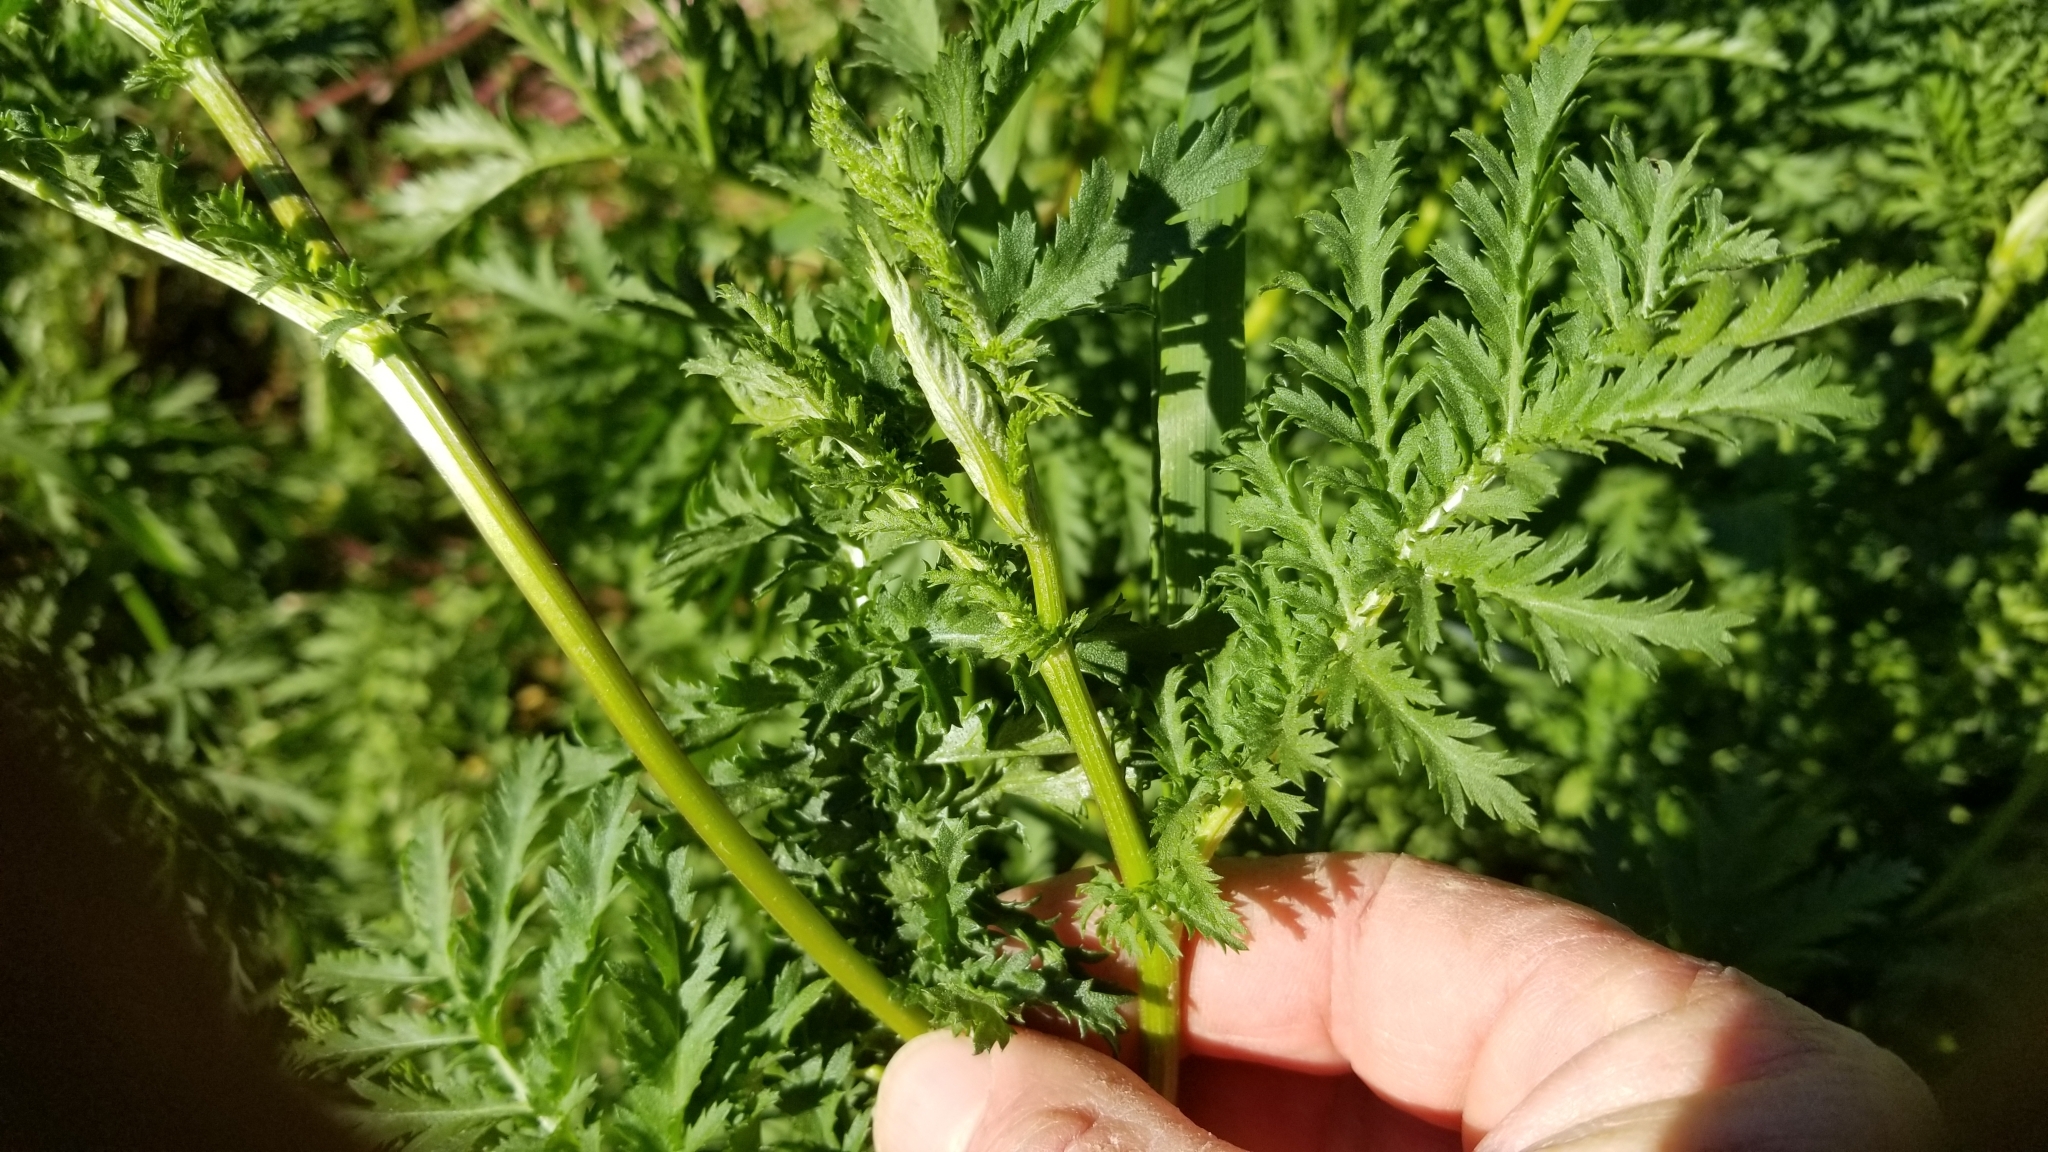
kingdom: Plantae
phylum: Tracheophyta
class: Magnoliopsida
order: Asterales
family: Asteraceae
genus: Tanacetum
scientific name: Tanacetum vulgare
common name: Common tansy
